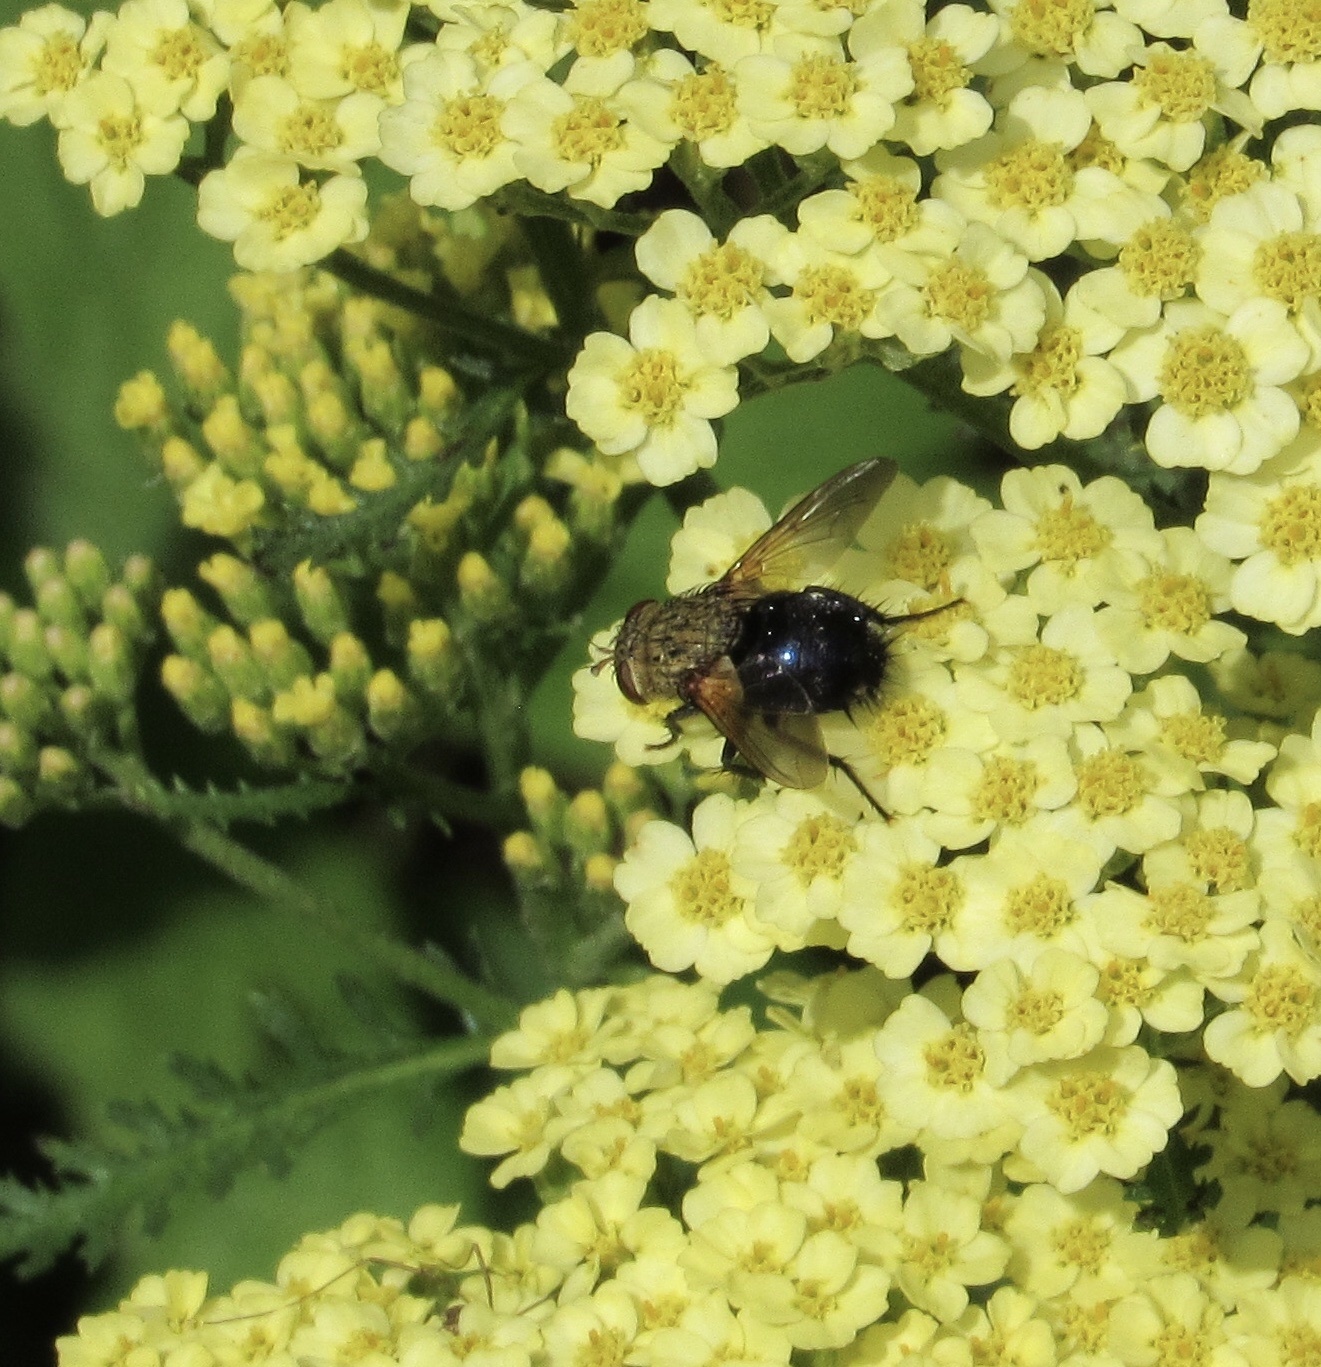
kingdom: Animalia
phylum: Arthropoda
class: Insecta
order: Diptera
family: Tachinidae
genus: Archytas
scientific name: Archytas
